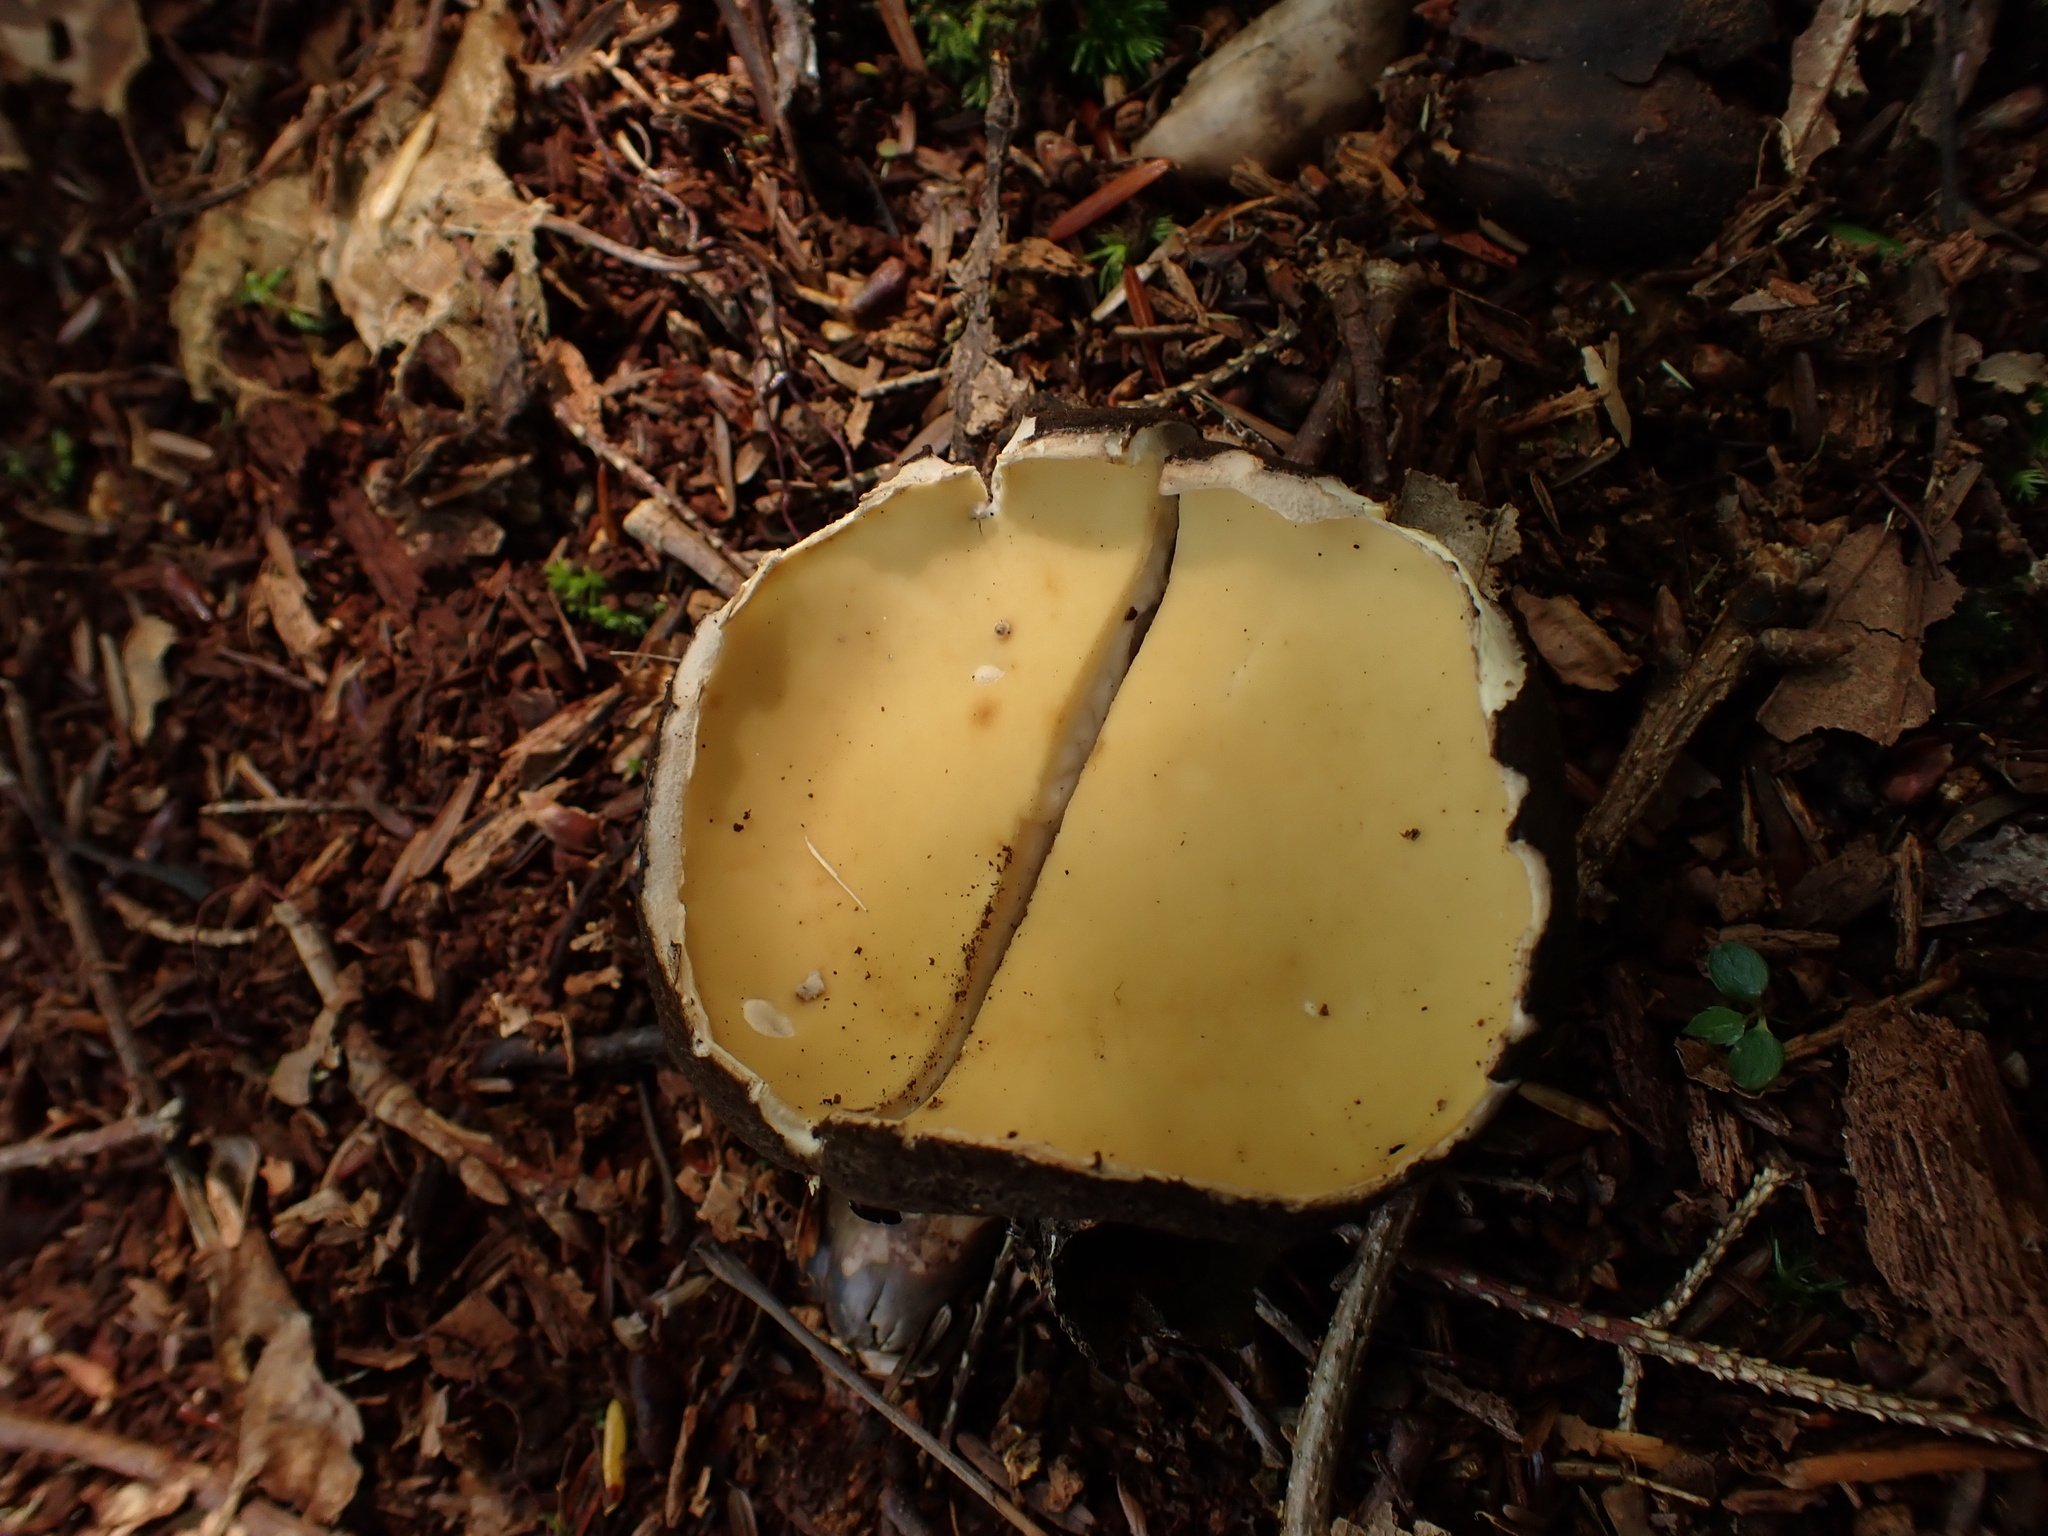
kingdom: Fungi
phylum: Ascomycota
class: Pezizomycetes
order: Pezizales
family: Chorioactidaceae
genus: Wolfina
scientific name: Wolfina aurantiopsis
